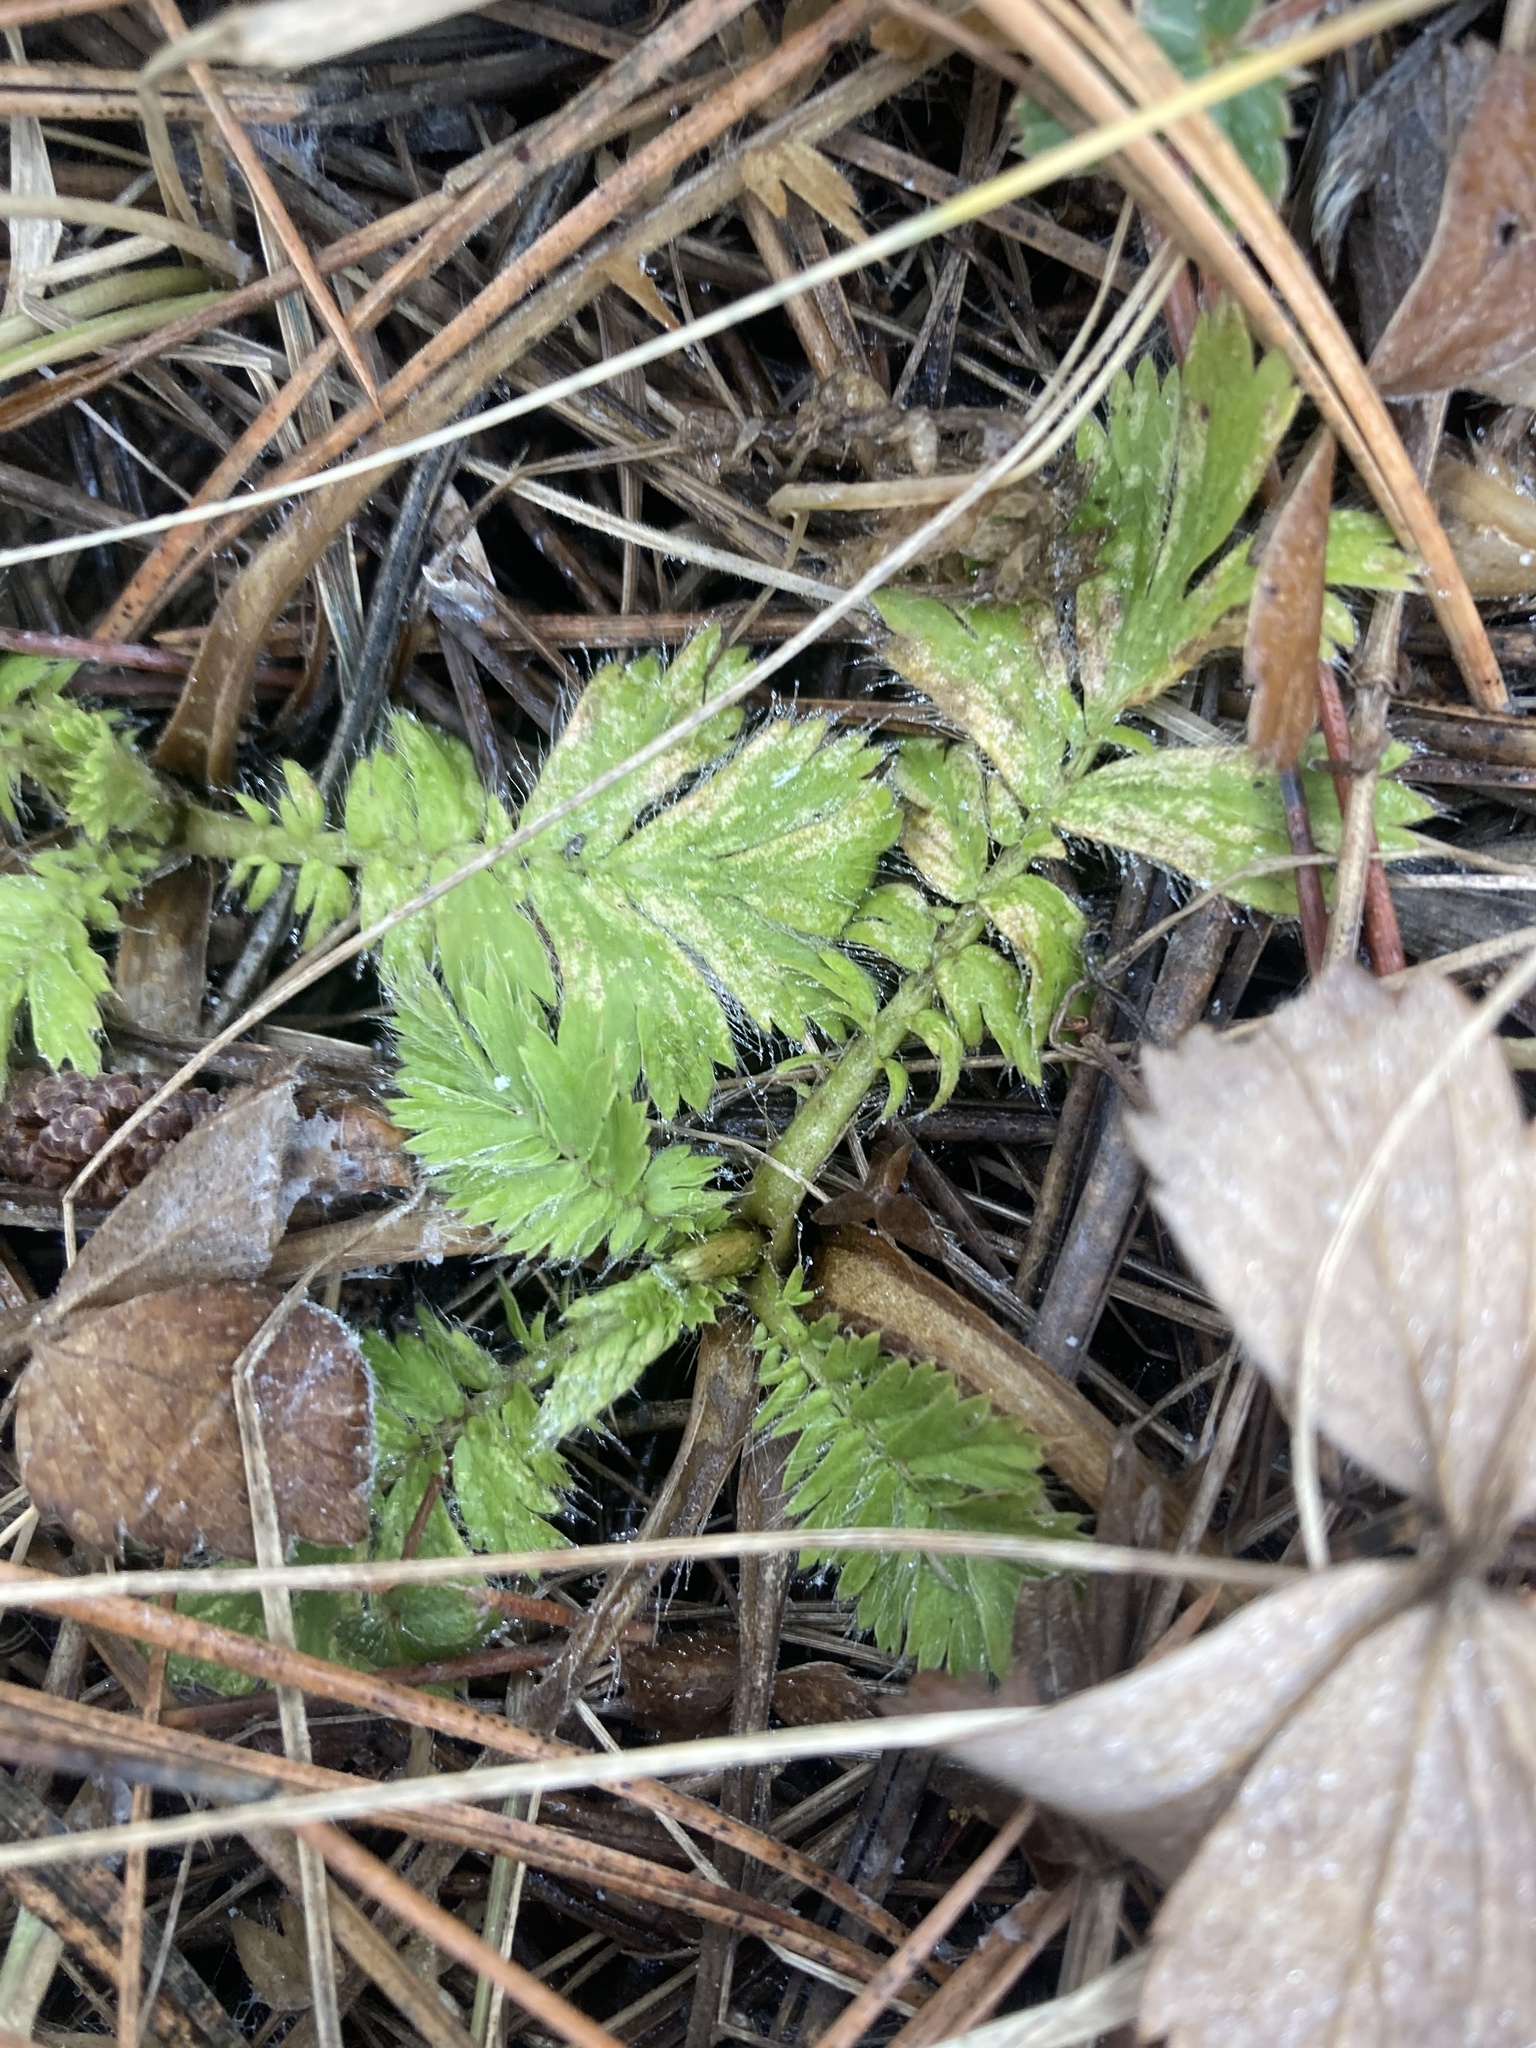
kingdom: Plantae
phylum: Tracheophyta
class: Magnoliopsida
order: Rosales
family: Rosaceae
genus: Geum
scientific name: Geum triflorum
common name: Old man's whiskers
